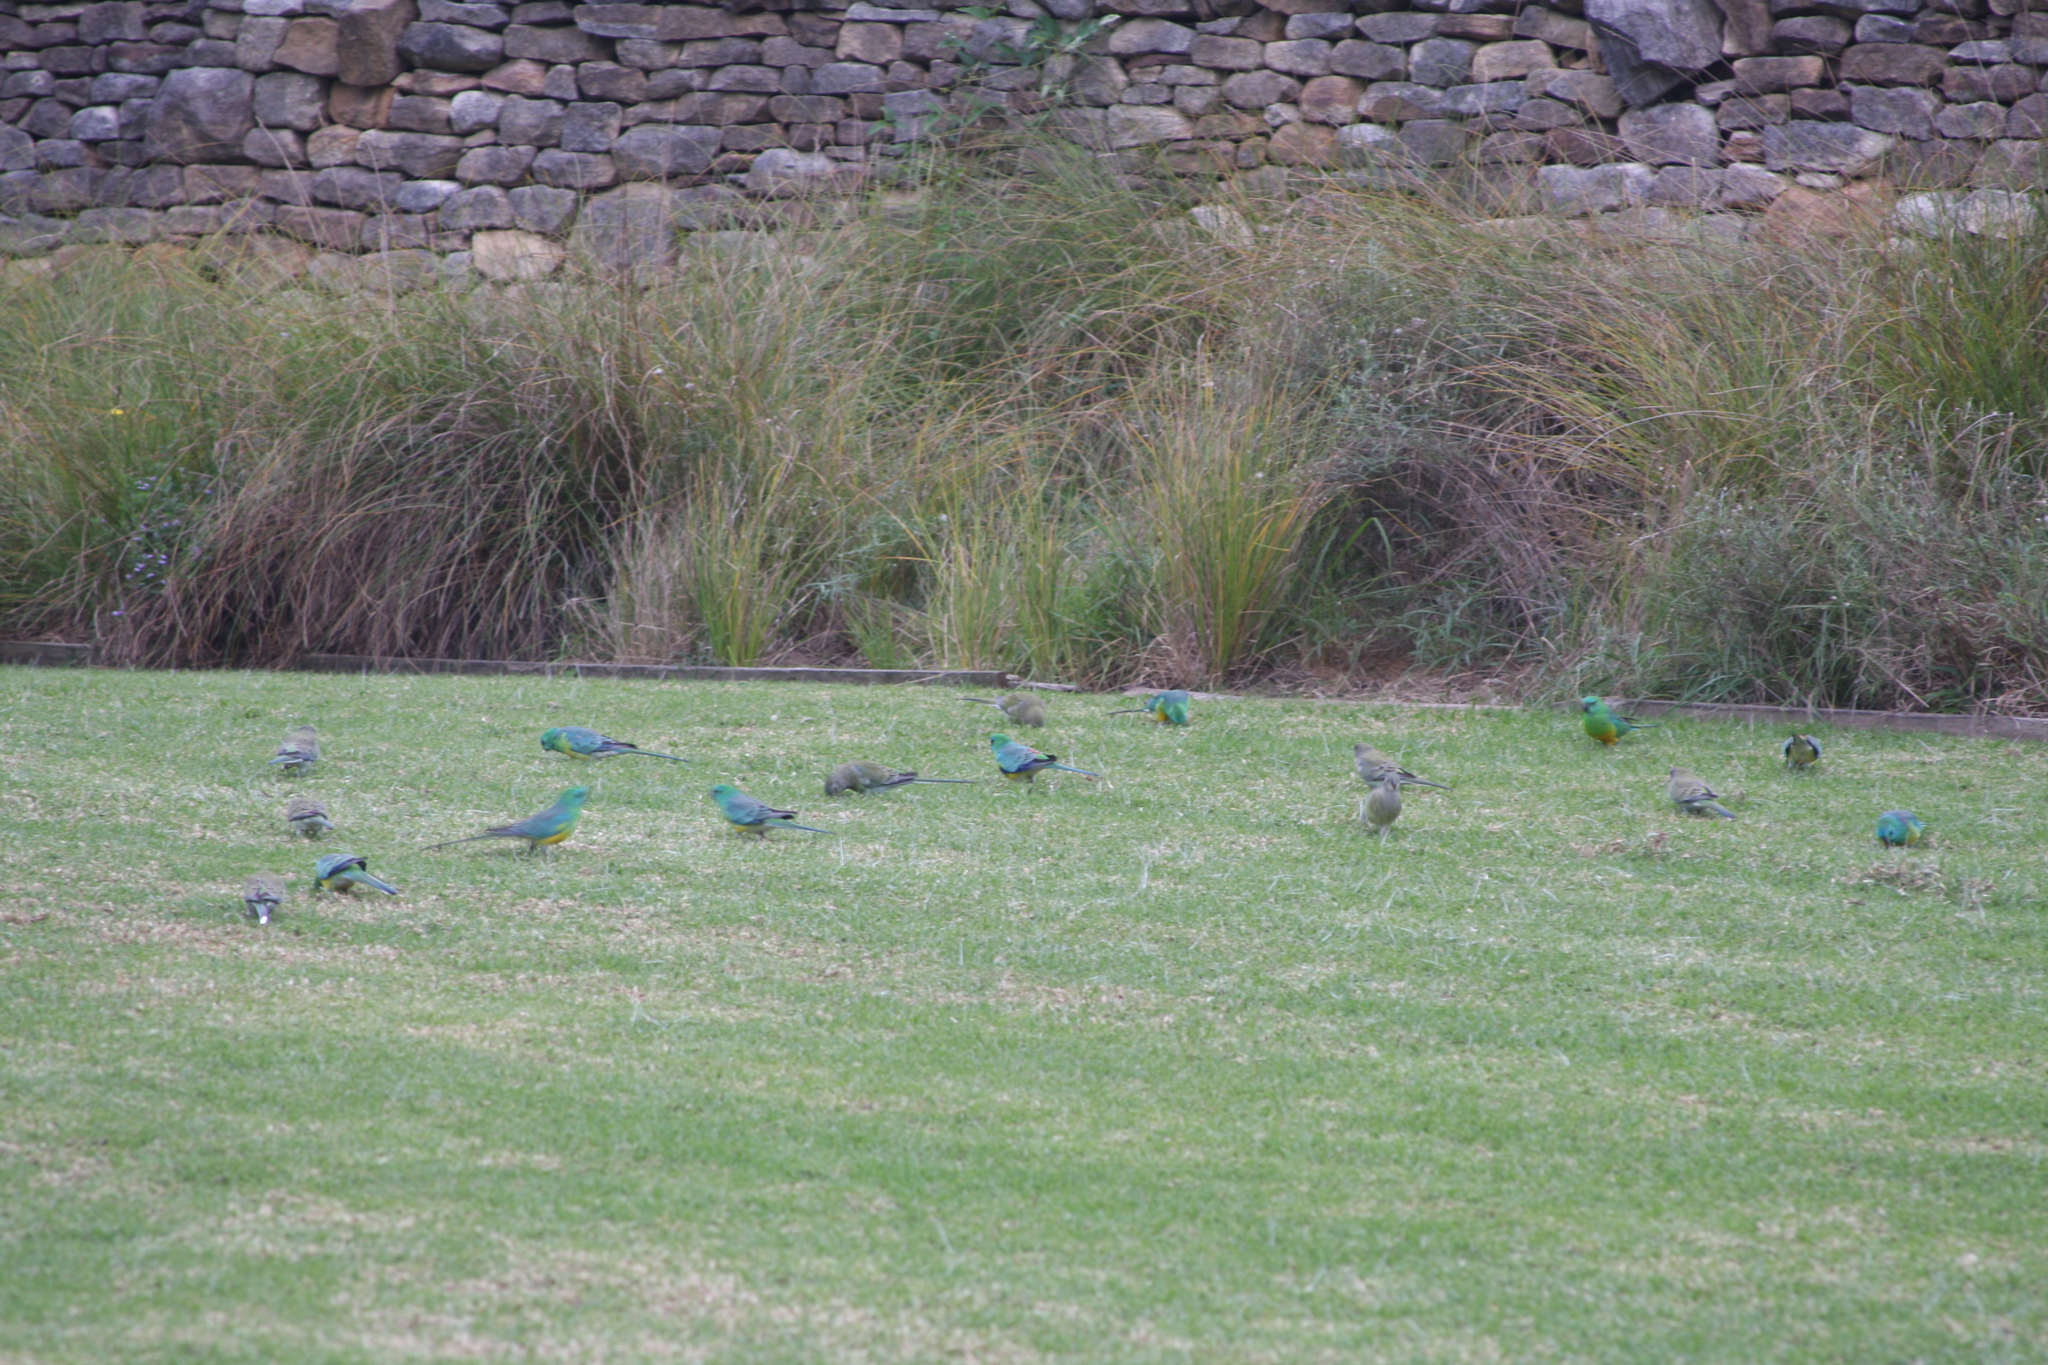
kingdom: Animalia
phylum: Chordata
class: Aves
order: Psittaciformes
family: Psittacidae
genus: Psephotus
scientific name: Psephotus haematonotus
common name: Red-rumped parrot
